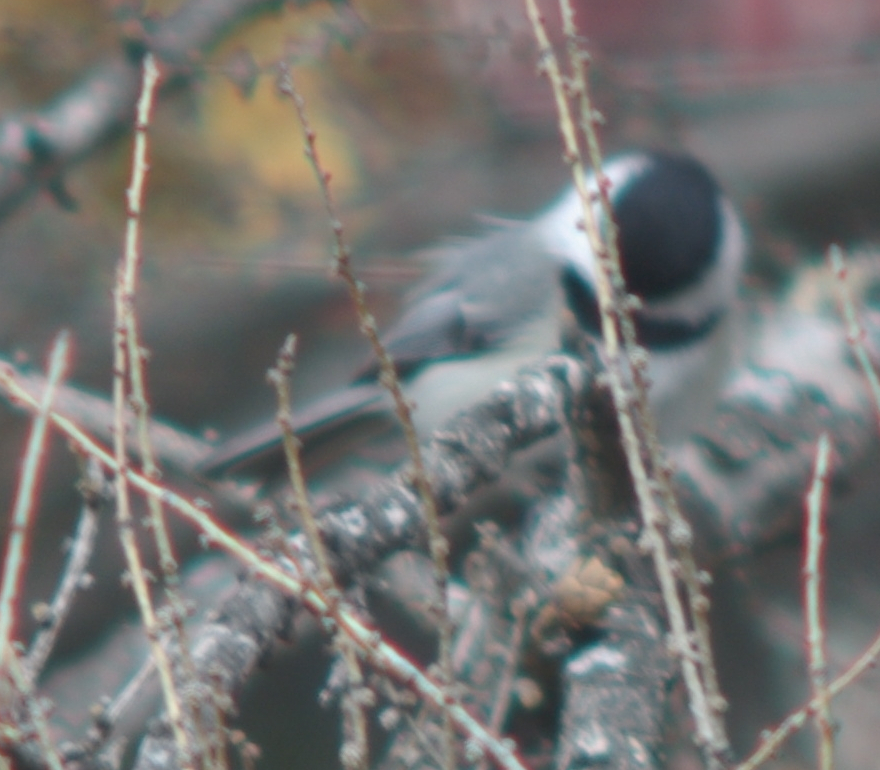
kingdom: Animalia
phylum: Chordata
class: Aves
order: Passeriformes
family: Paridae
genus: Poecile
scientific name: Poecile atricapillus
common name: Black-capped chickadee
